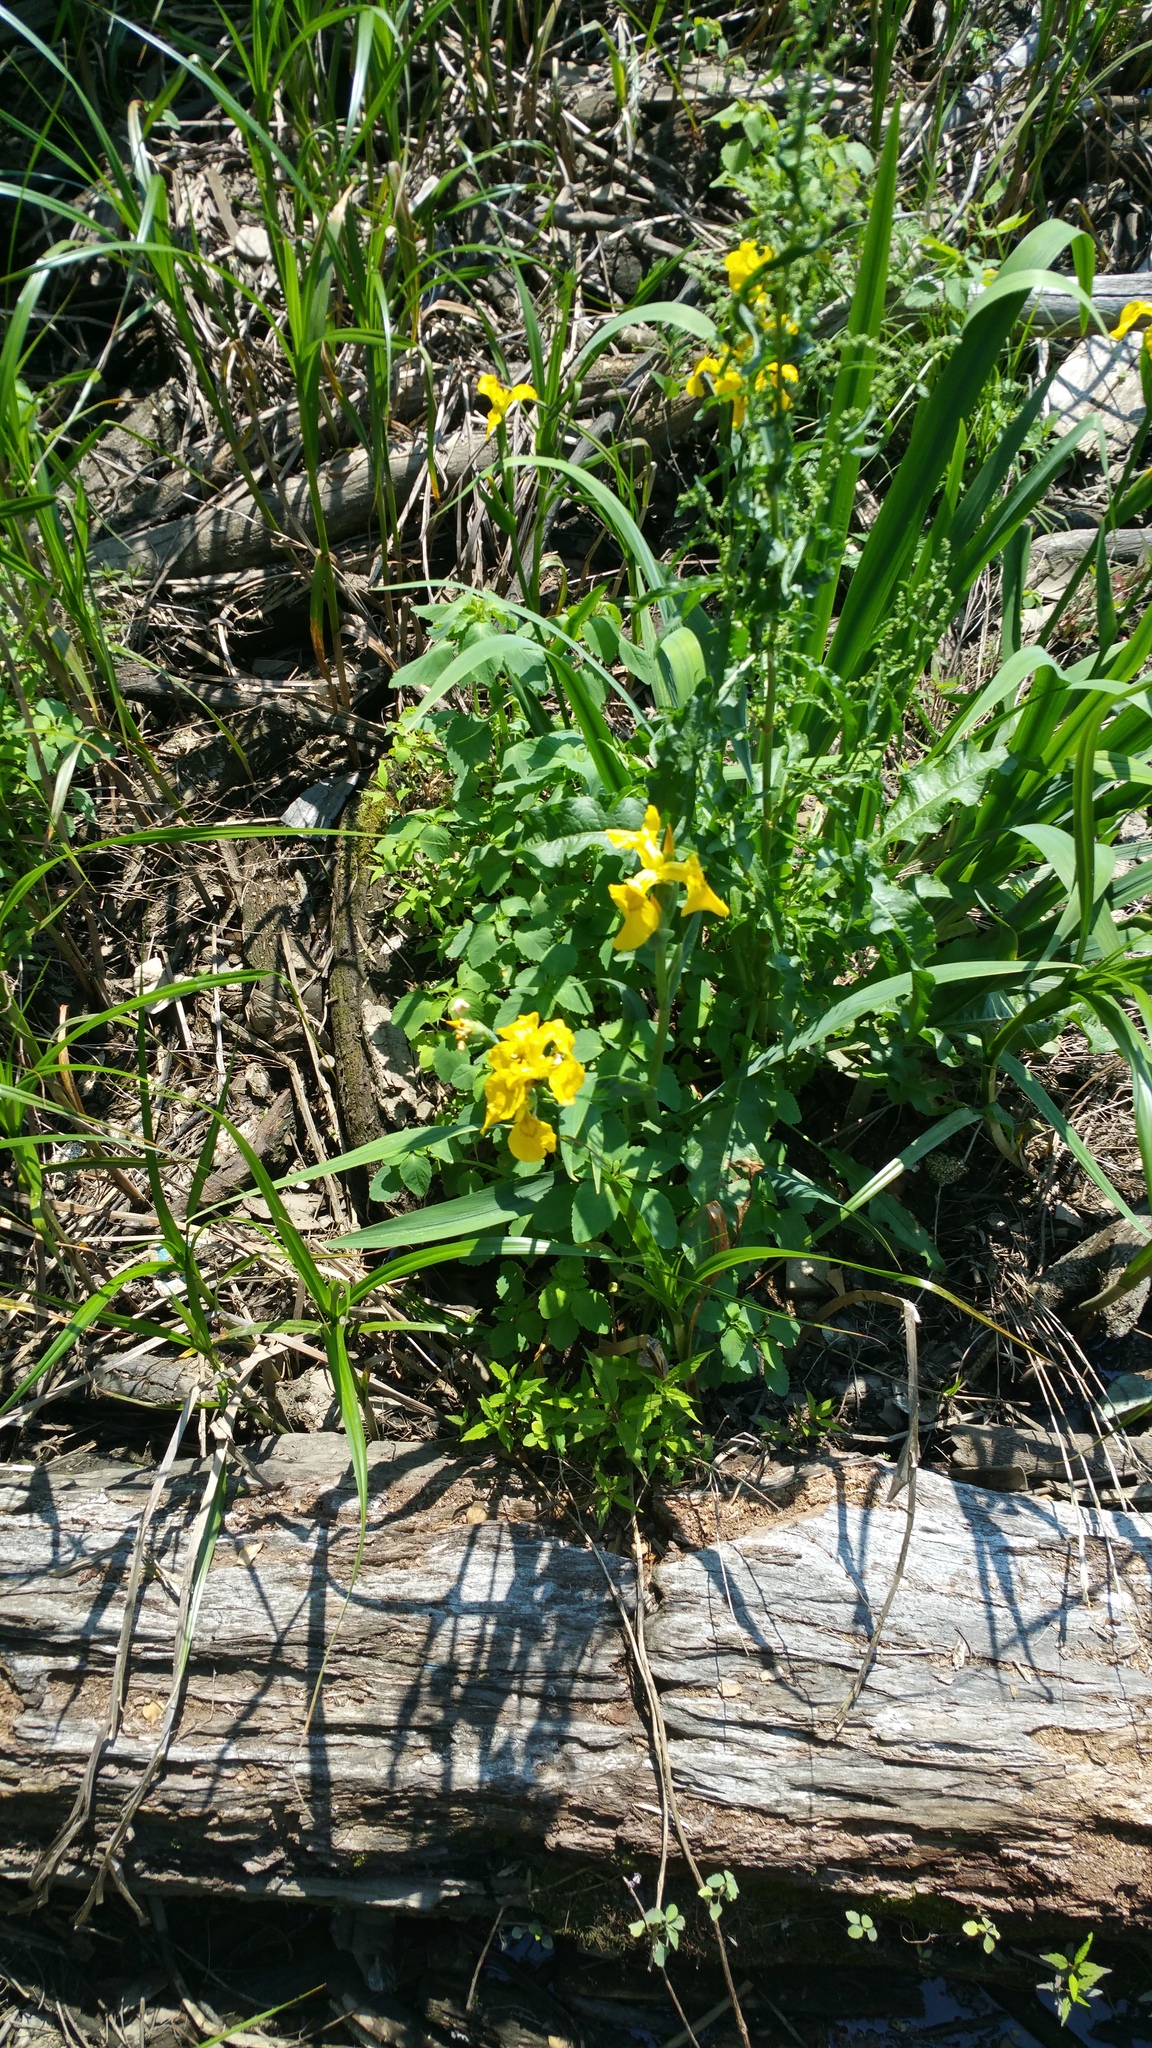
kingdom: Plantae
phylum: Tracheophyta
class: Liliopsida
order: Asparagales
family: Iridaceae
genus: Iris
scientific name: Iris pseudacorus
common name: Yellow flag
